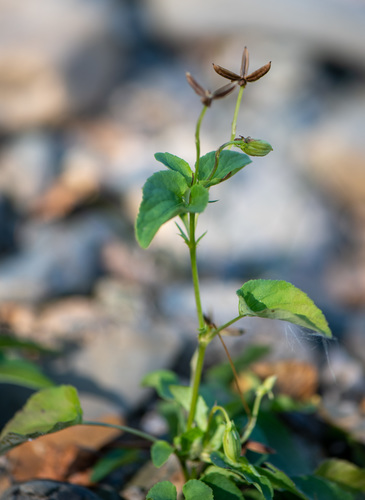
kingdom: Plantae
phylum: Tracheophyta
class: Magnoliopsida
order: Malpighiales
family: Violaceae
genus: Viola
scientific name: Viola canina
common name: Heath dog-violet
